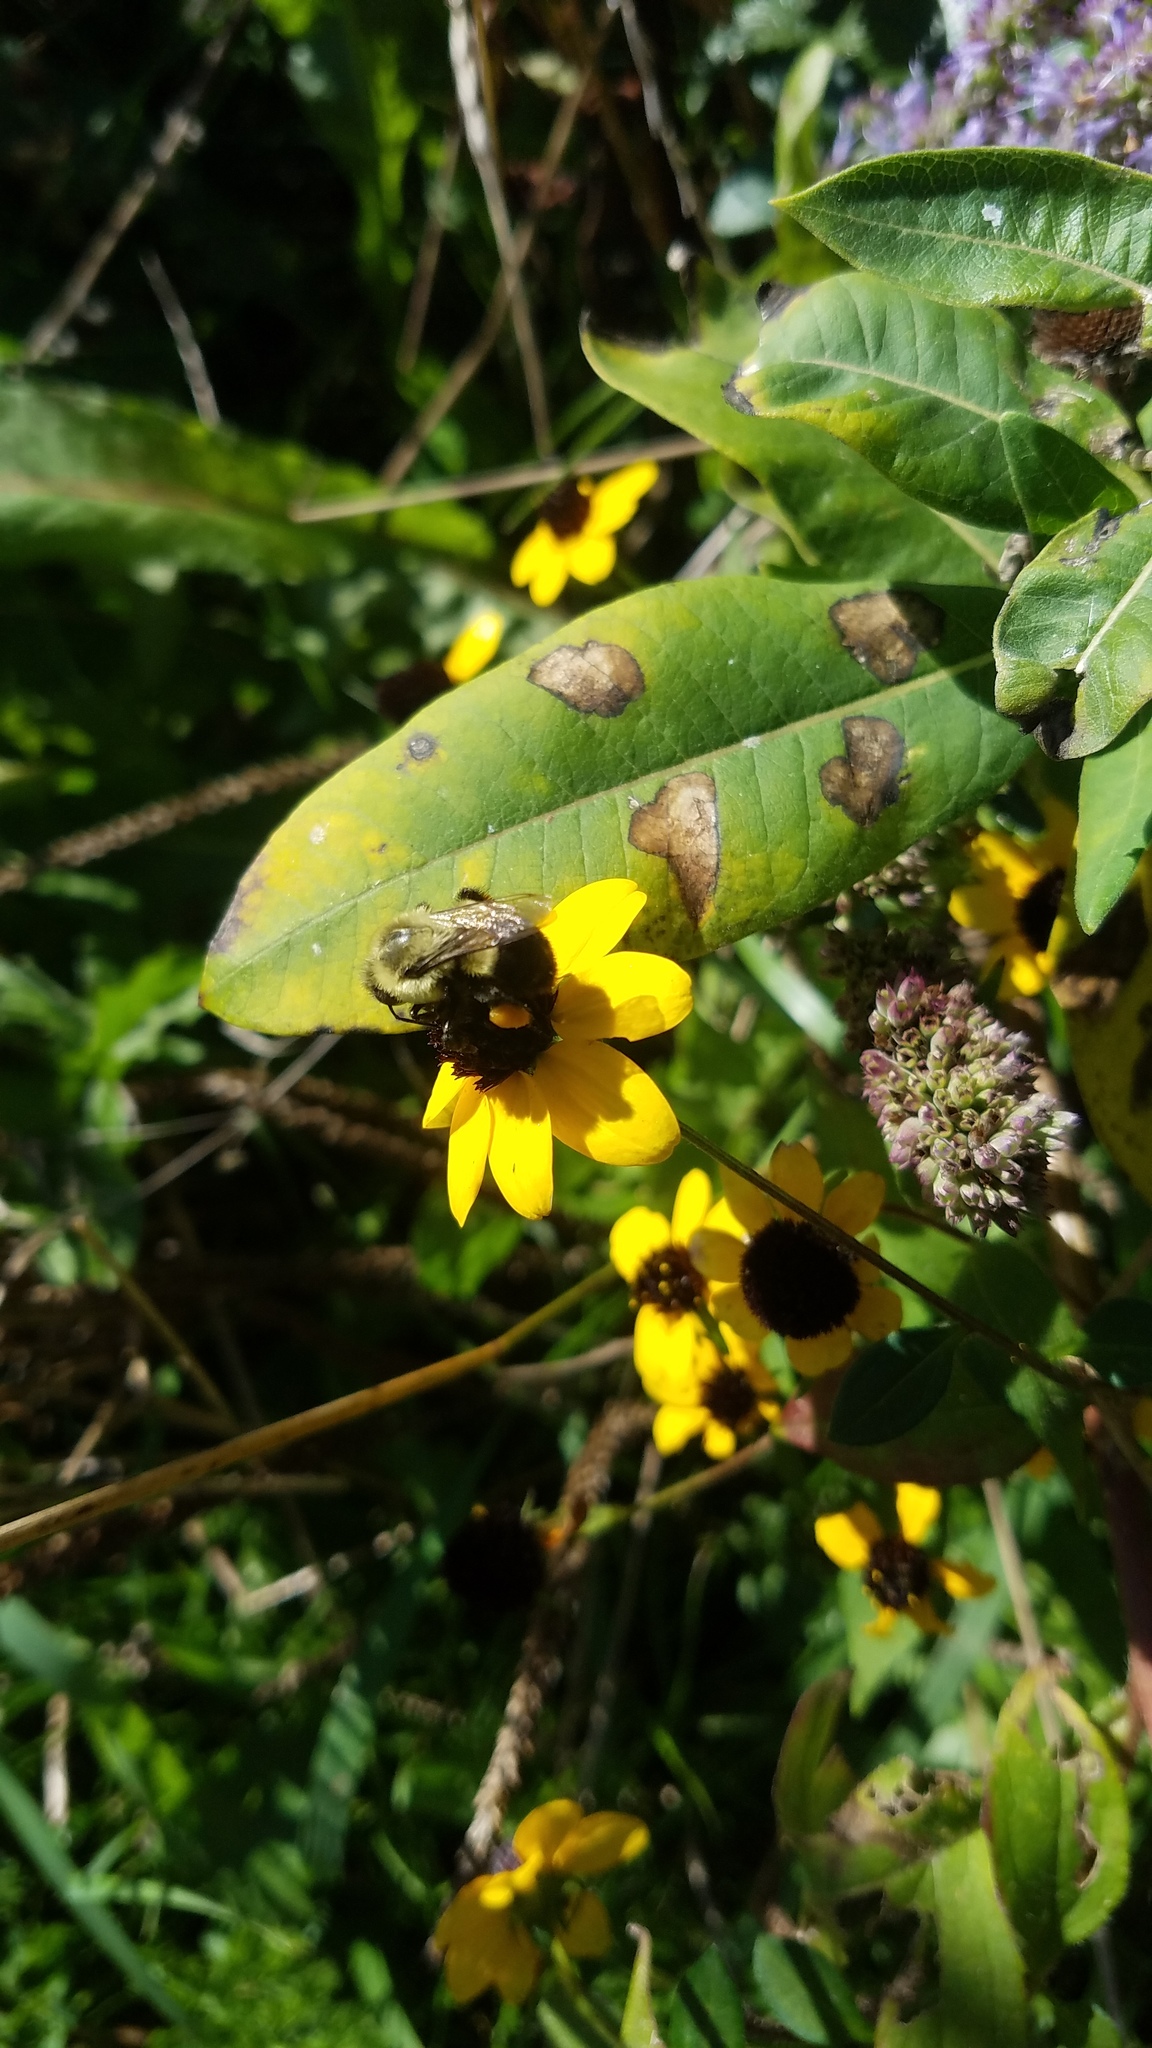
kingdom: Animalia
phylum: Arthropoda
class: Insecta
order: Hymenoptera
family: Apidae
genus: Bombus
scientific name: Bombus impatiens
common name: Common eastern bumble bee
